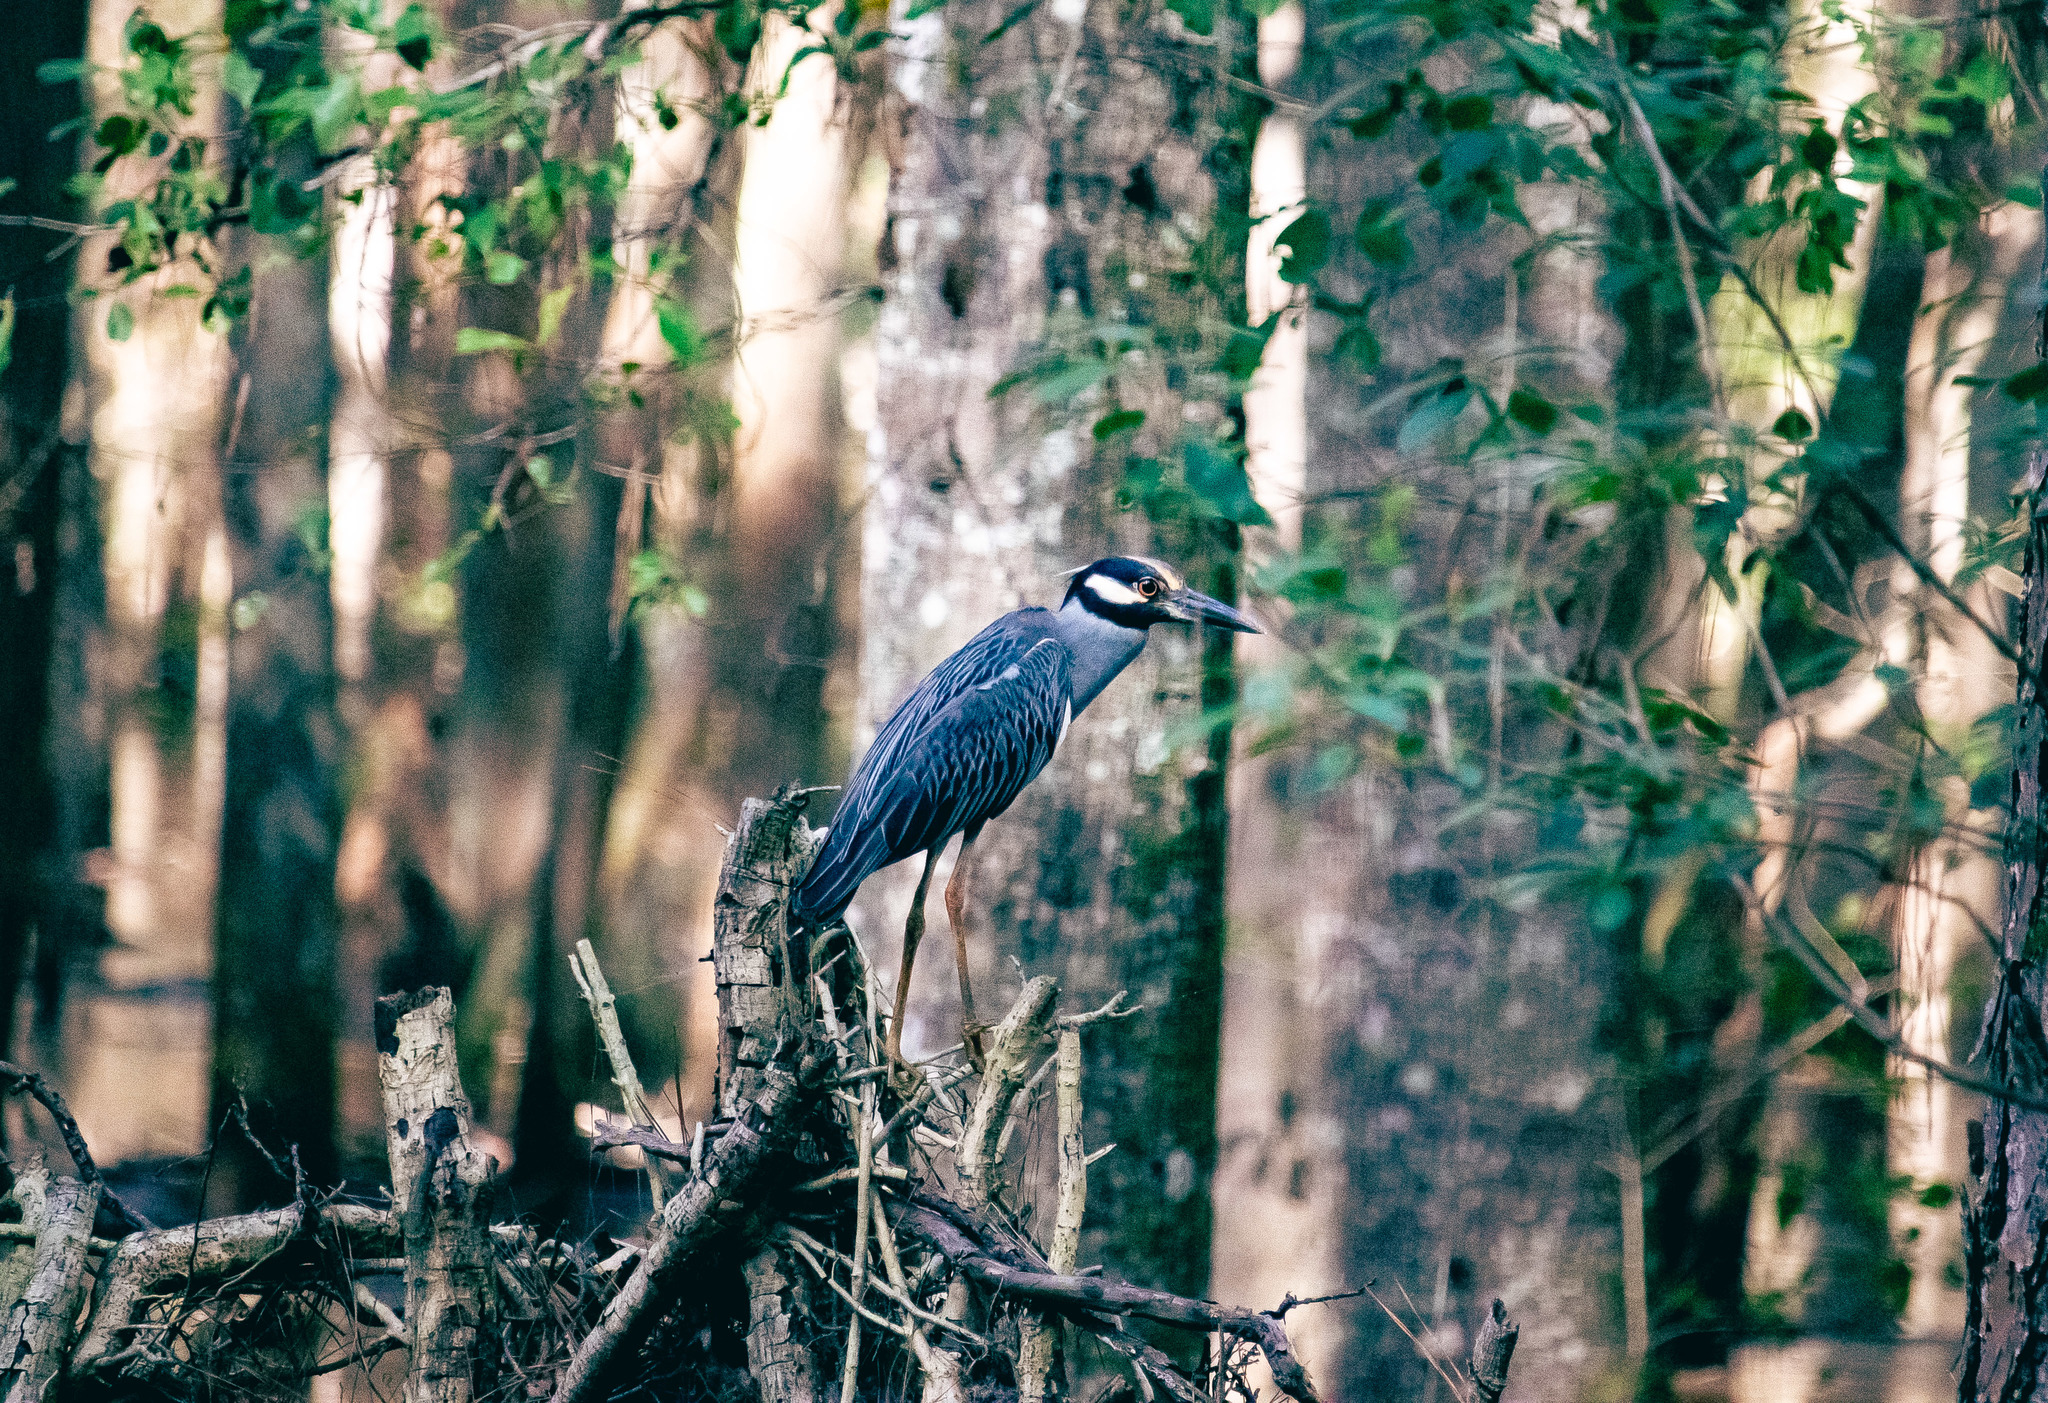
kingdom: Animalia
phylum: Chordata
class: Aves
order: Pelecaniformes
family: Ardeidae
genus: Nyctanassa
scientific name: Nyctanassa violacea
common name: Yellow-crowned night heron
